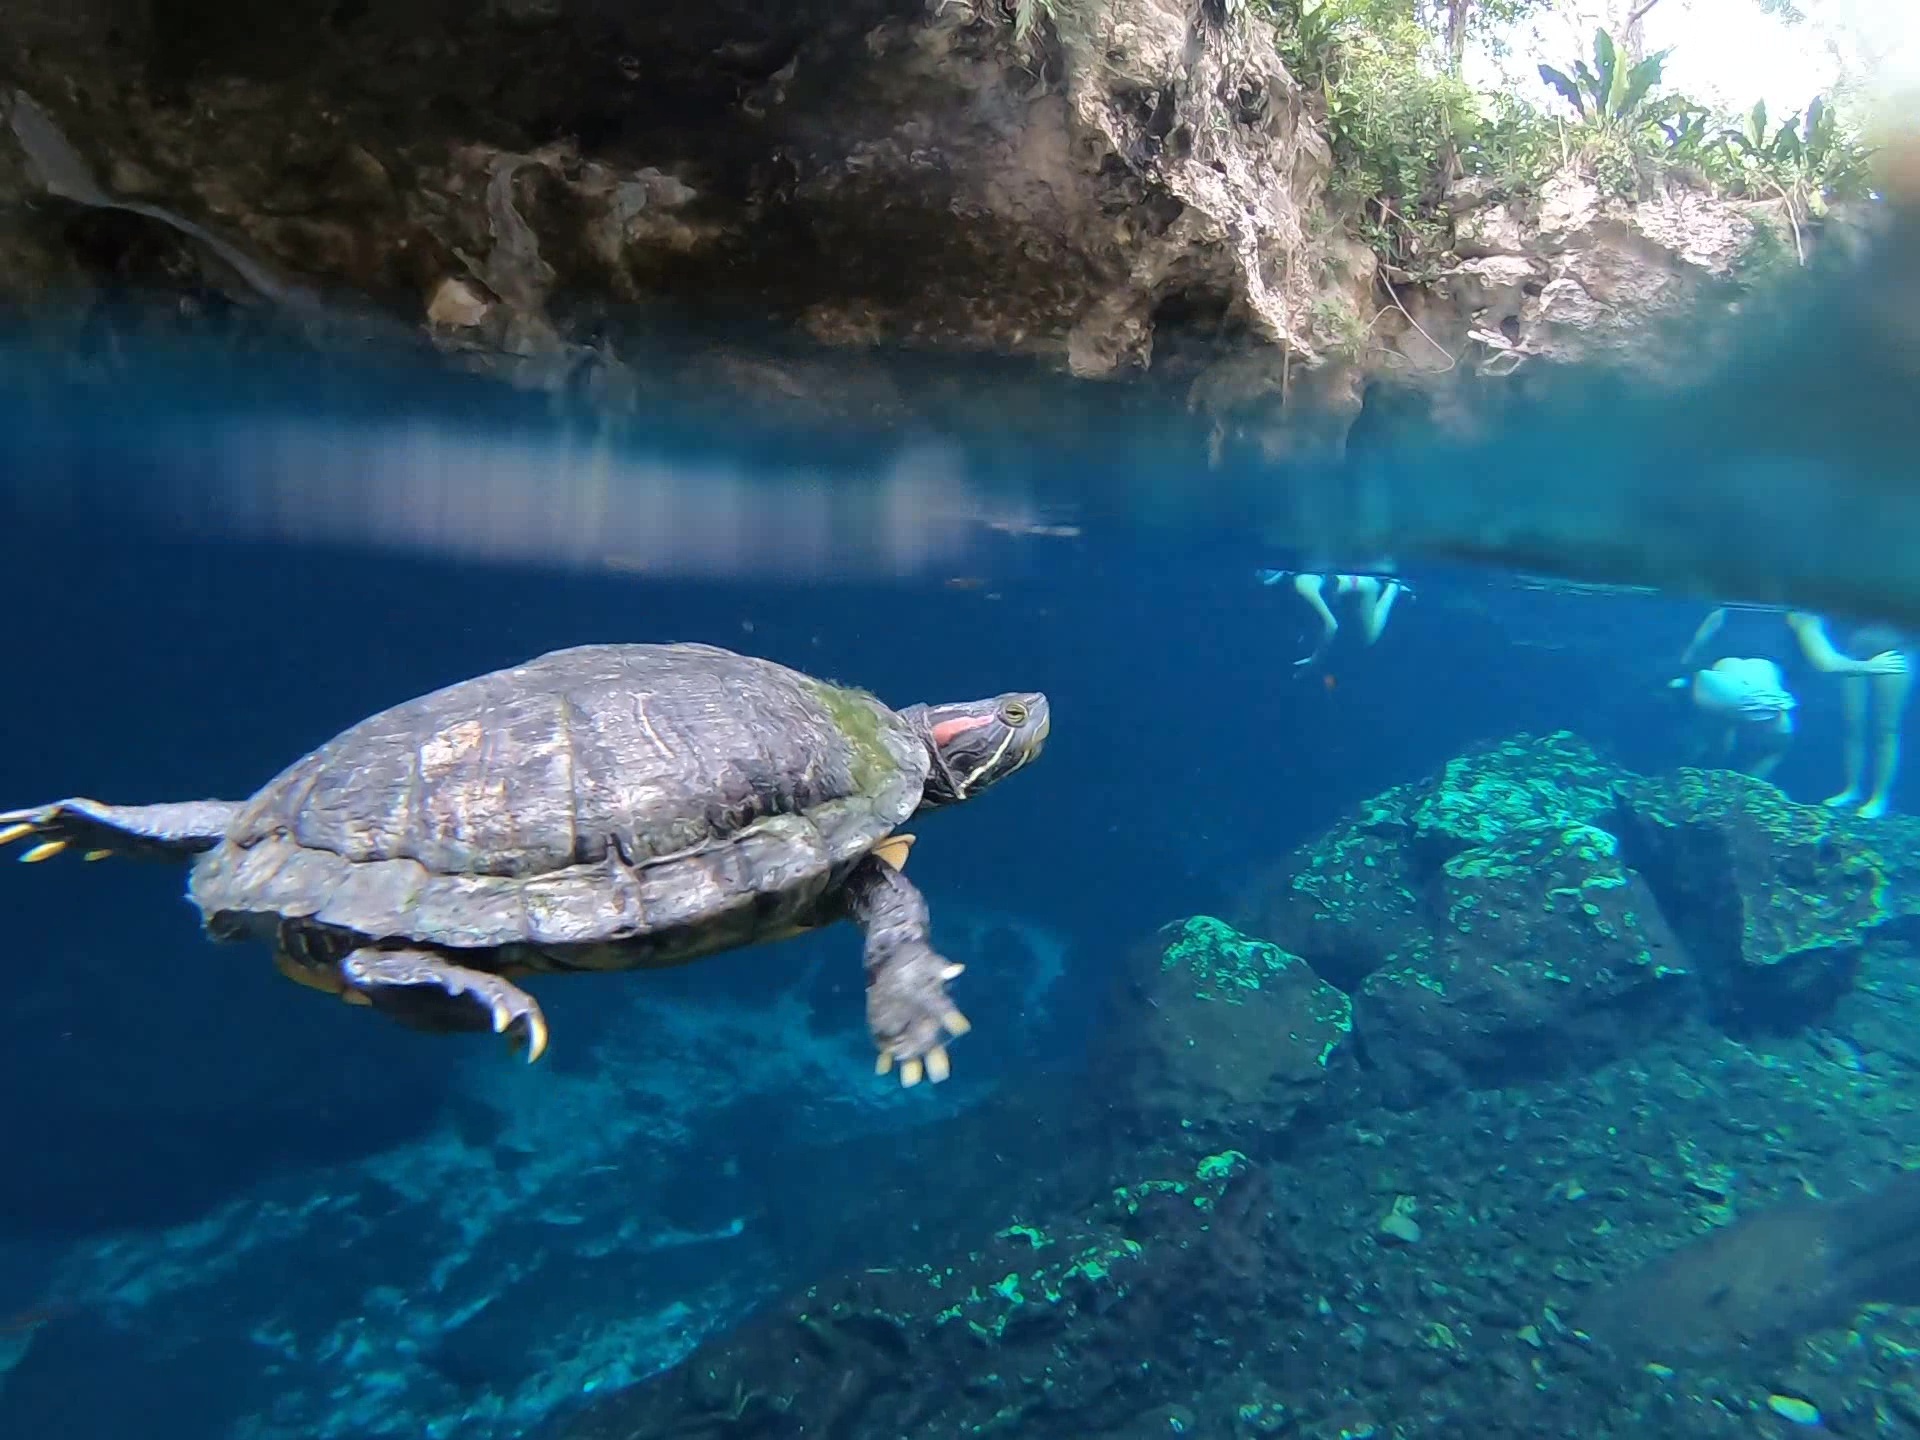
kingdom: Animalia
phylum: Chordata
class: Testudines
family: Emydidae
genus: Trachemys
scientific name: Trachemys scripta
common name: Slider
